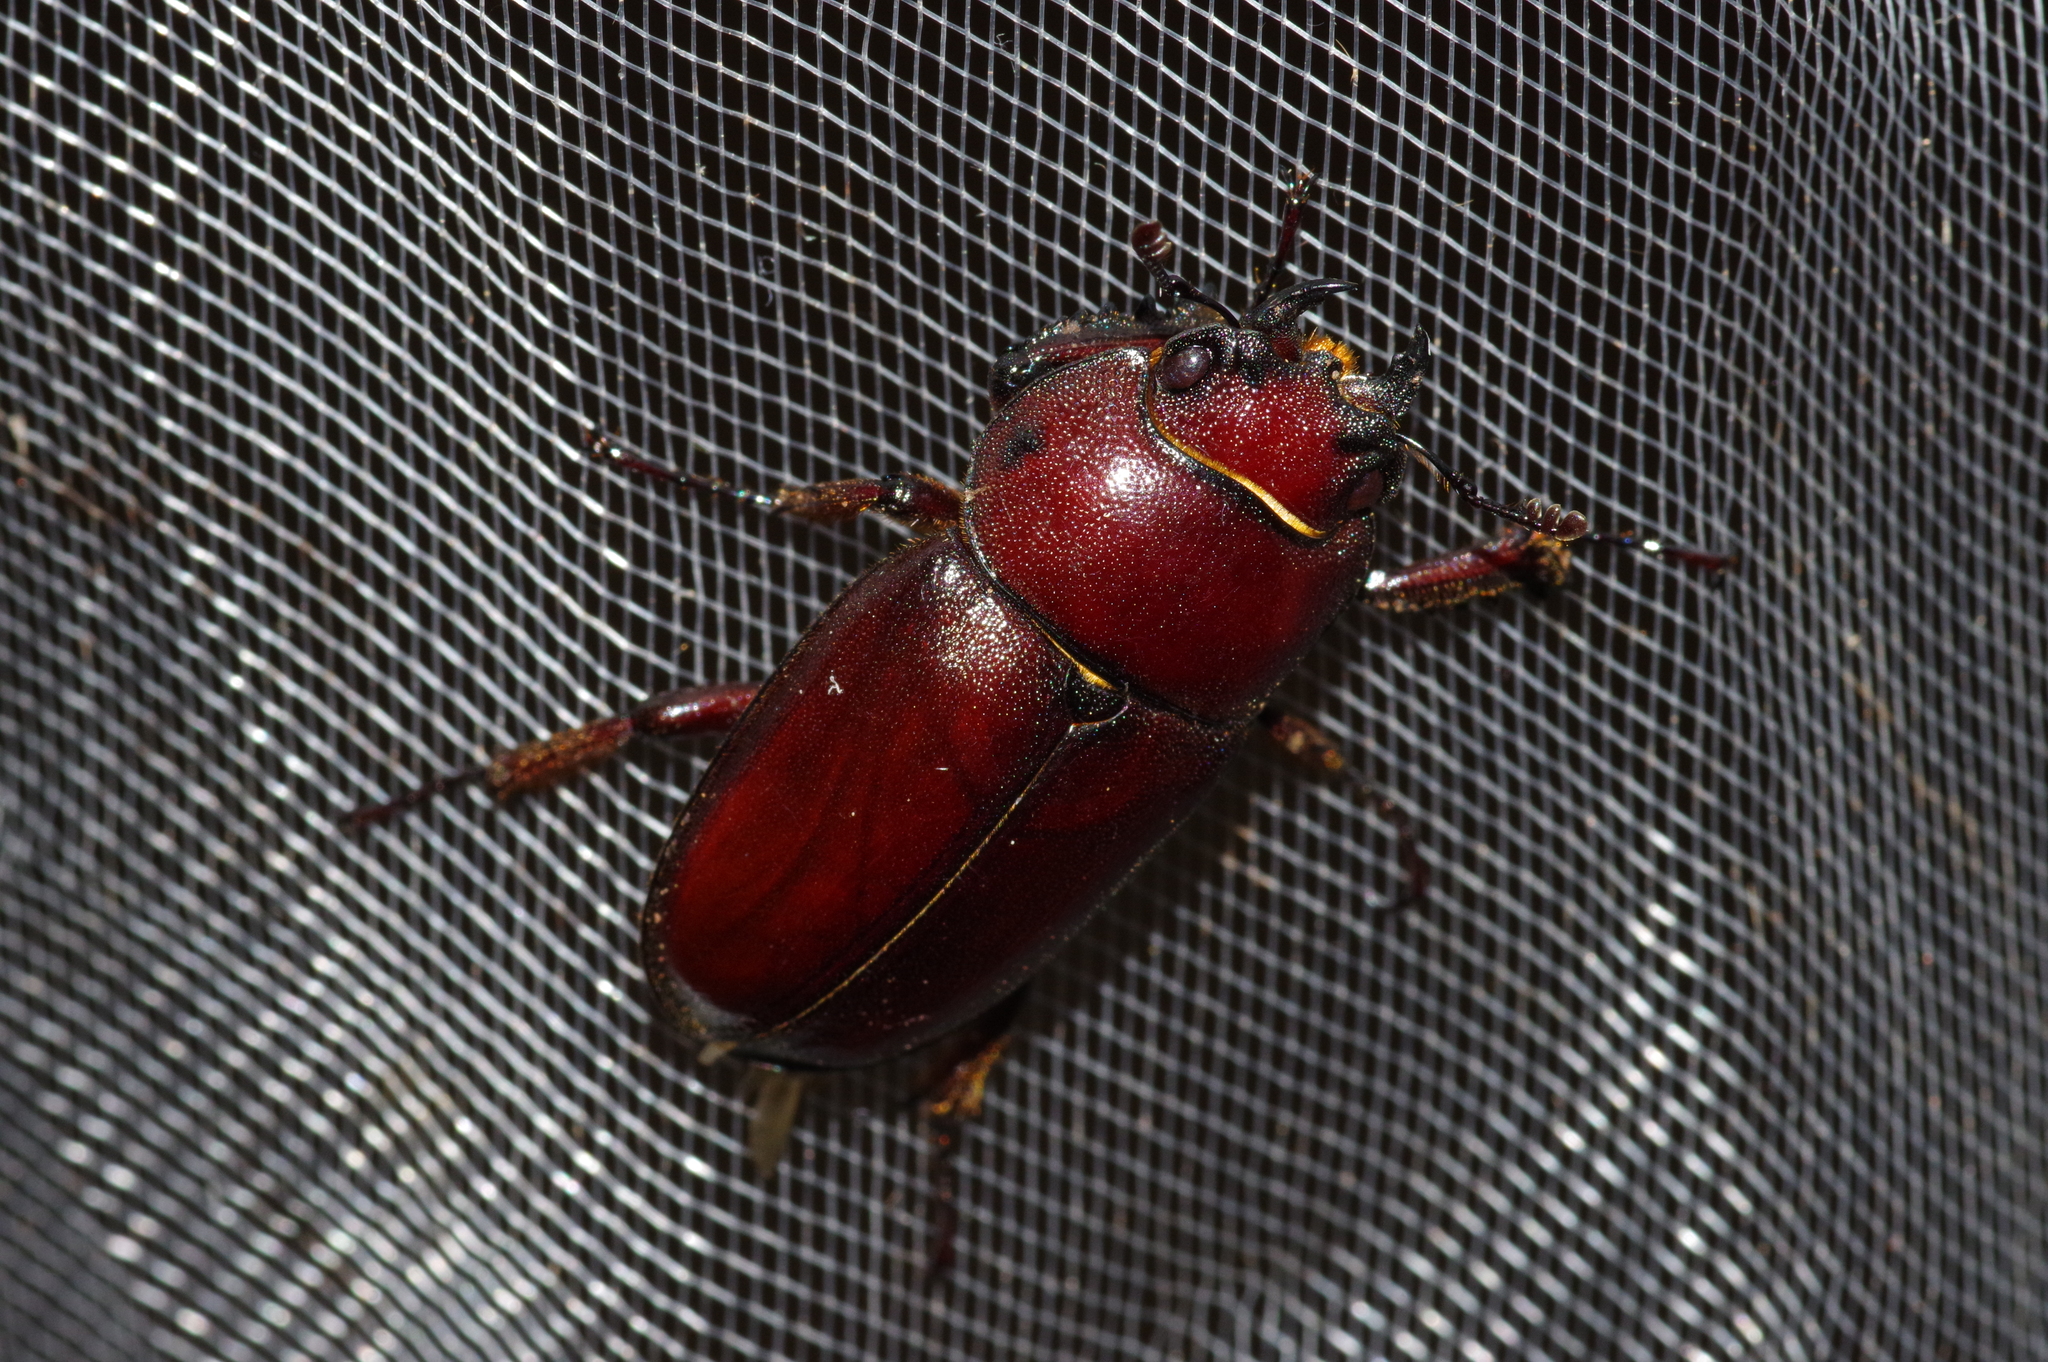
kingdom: Animalia
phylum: Arthropoda
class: Insecta
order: Coleoptera
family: Lucanidae
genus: Prosopocoilus
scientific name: Prosopocoilus dissimilis
